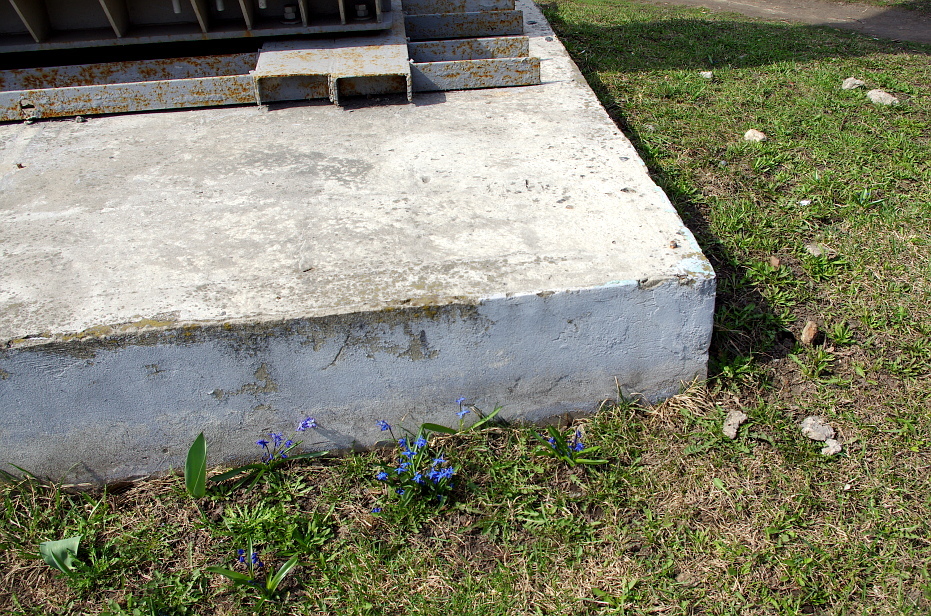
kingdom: Plantae
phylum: Tracheophyta
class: Liliopsida
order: Asparagales
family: Asparagaceae
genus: Scilla
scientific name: Scilla siberica
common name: Siberian squill
